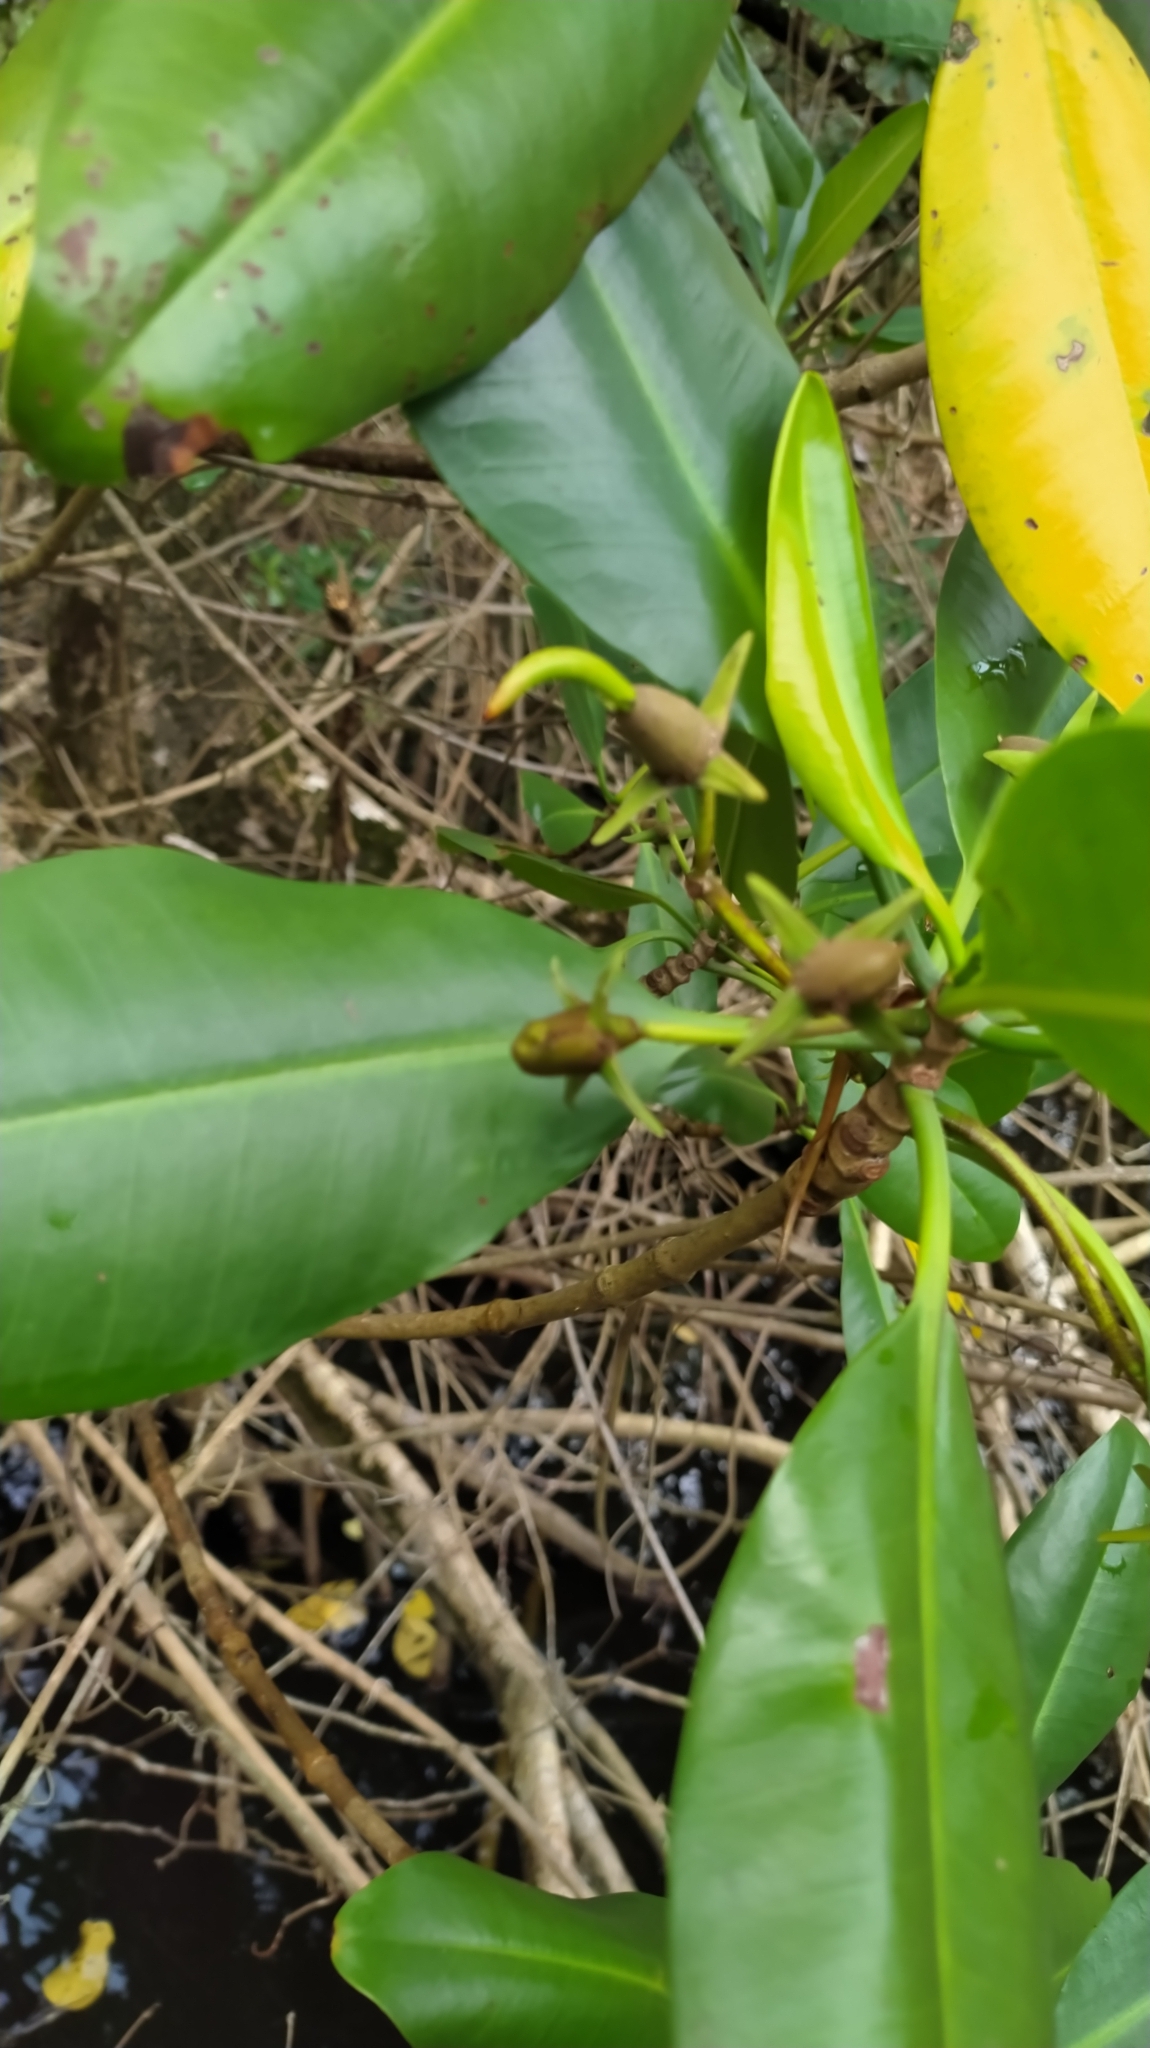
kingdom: Plantae
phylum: Tracheophyta
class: Magnoliopsida
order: Malpighiales
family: Rhizophoraceae
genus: Rhizophora
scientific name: Rhizophora mangle
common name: Red mangrove
